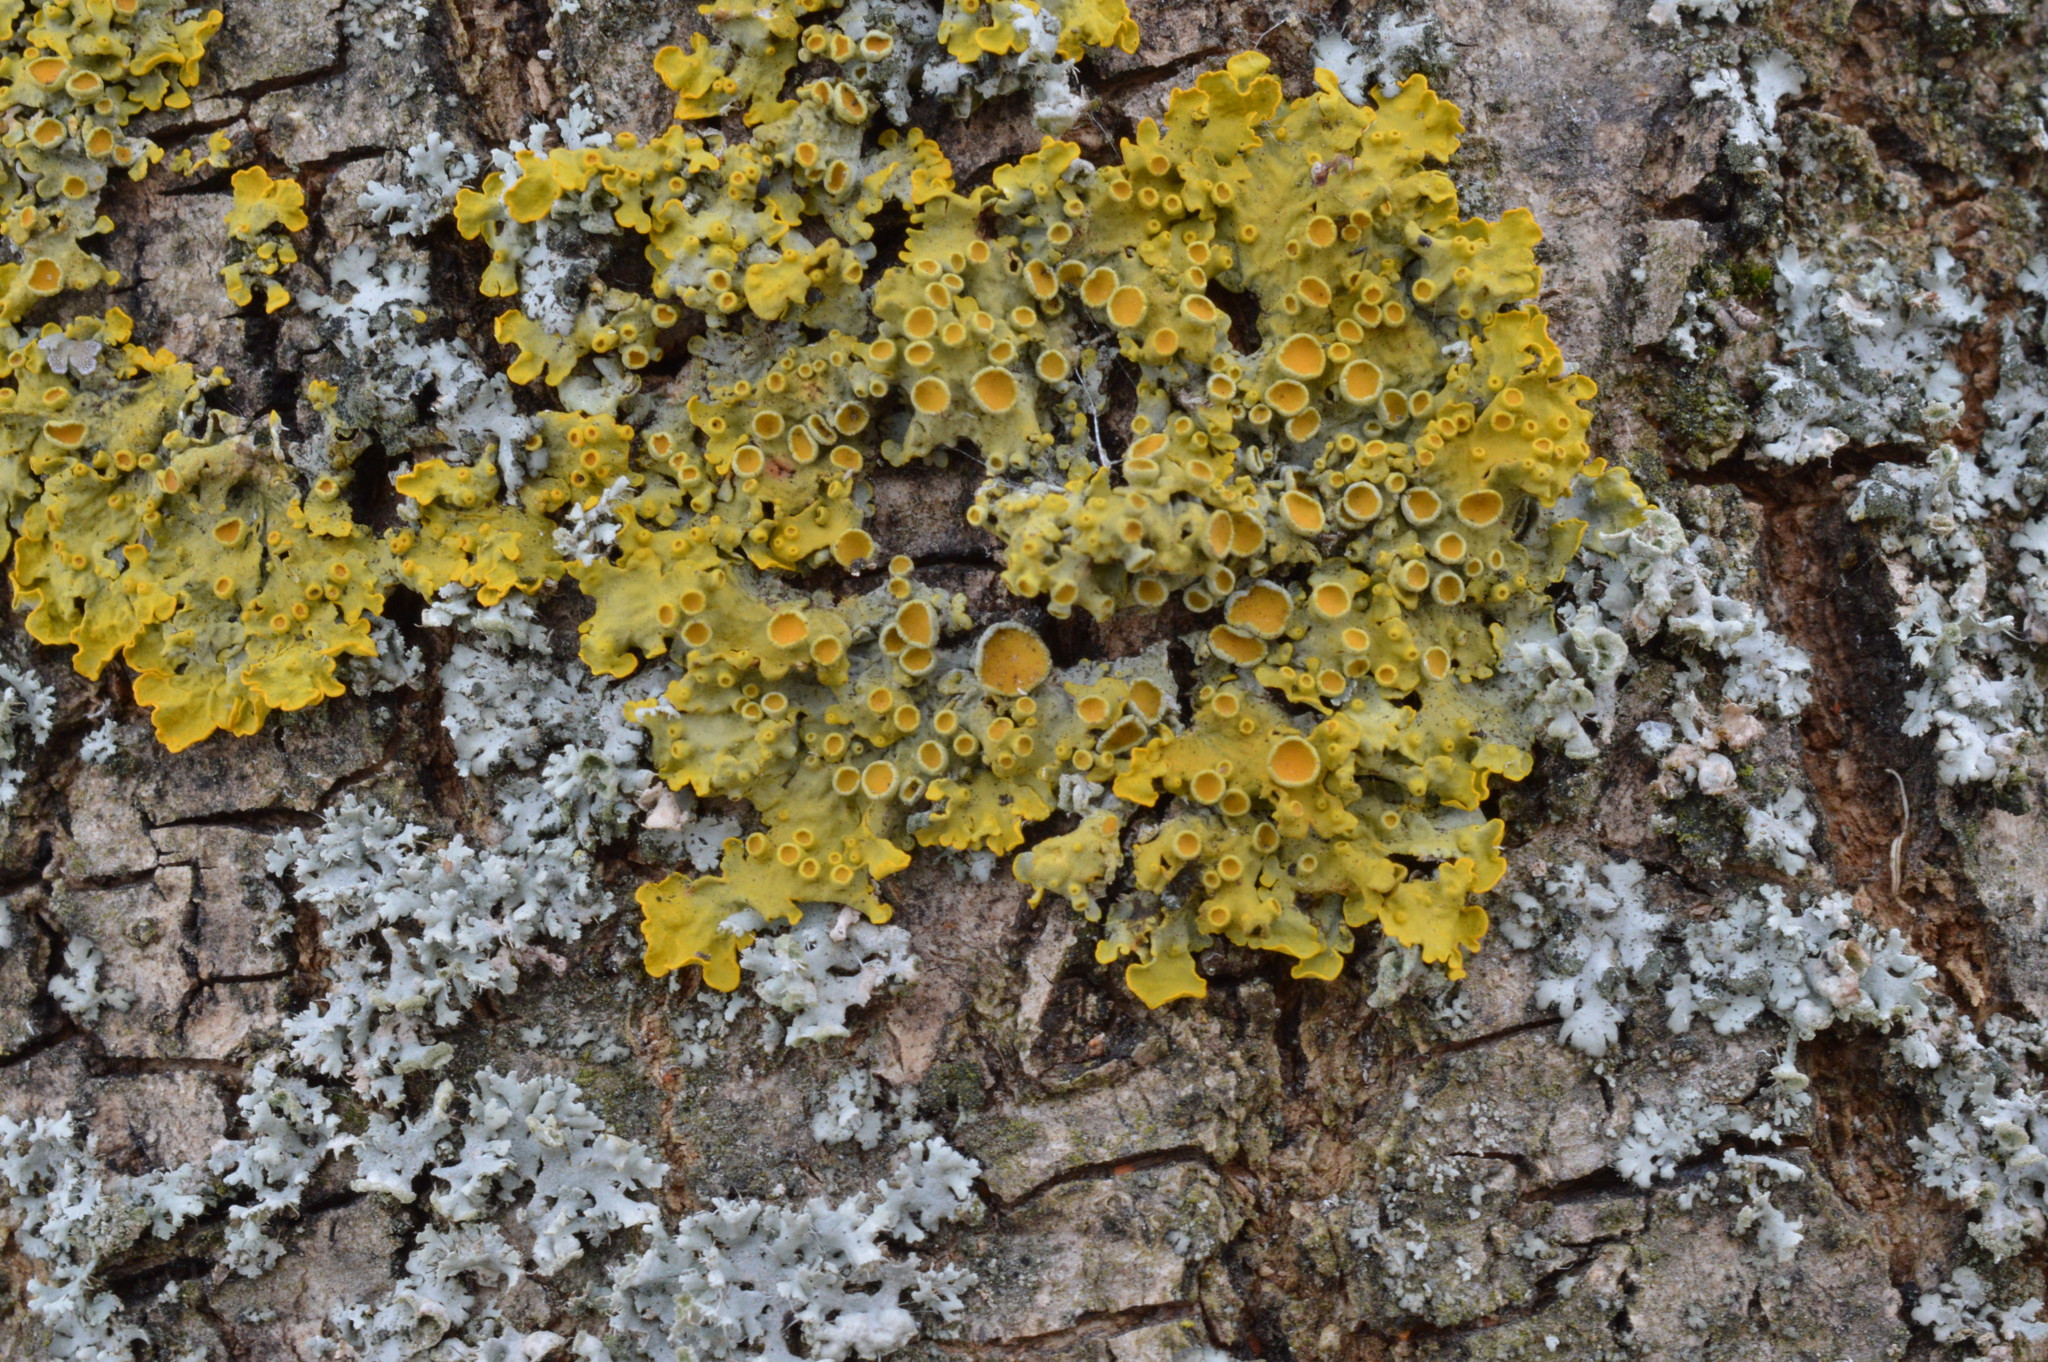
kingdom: Fungi
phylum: Ascomycota
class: Lecanoromycetes
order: Teloschistales
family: Teloschistaceae
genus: Xanthoria
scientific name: Xanthoria parietina
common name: Common orange lichen
